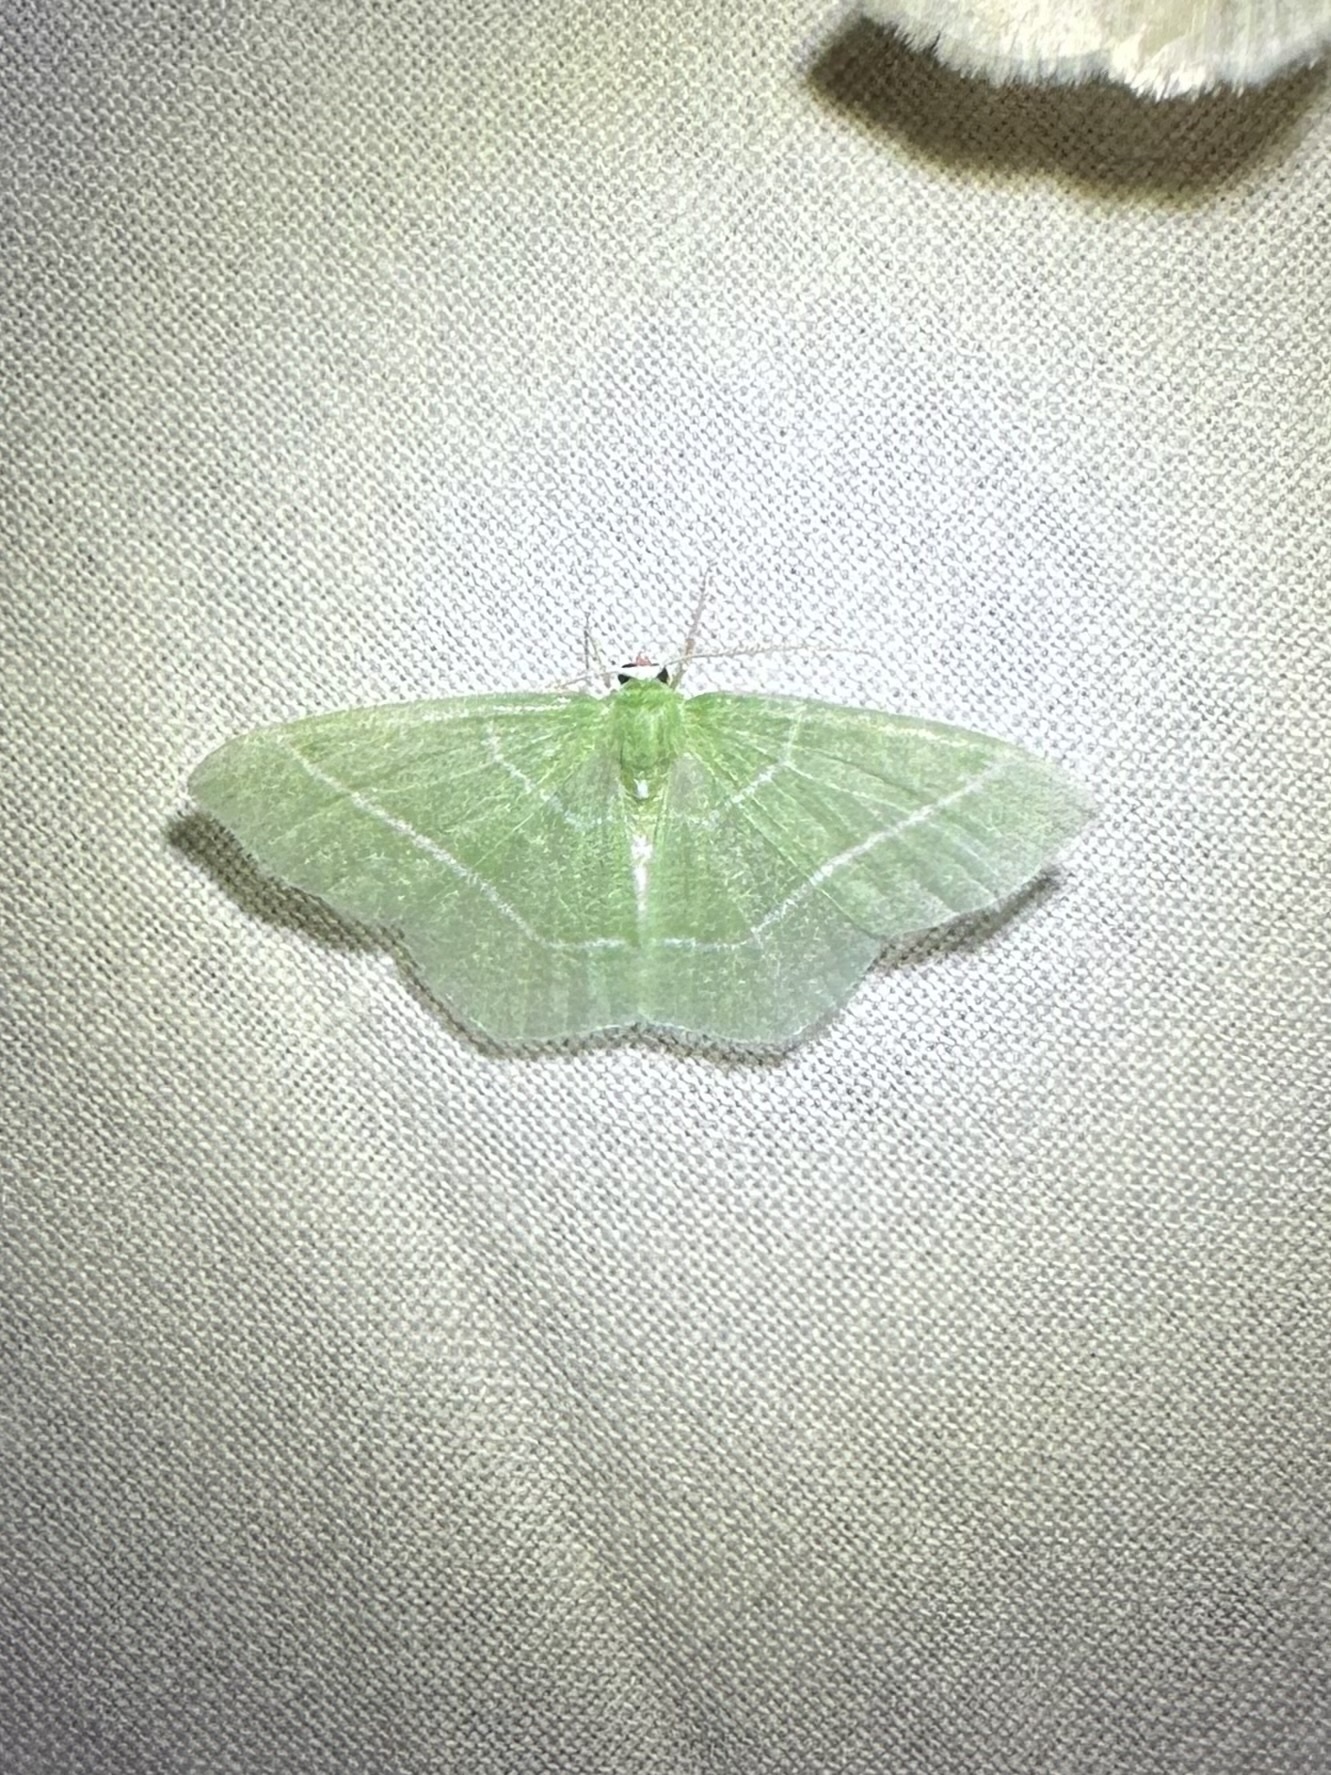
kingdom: Animalia
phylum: Arthropoda
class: Insecta
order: Lepidoptera
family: Geometridae
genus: Nemoria
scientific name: Nemoria mimosaria
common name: White-fringed emerald
